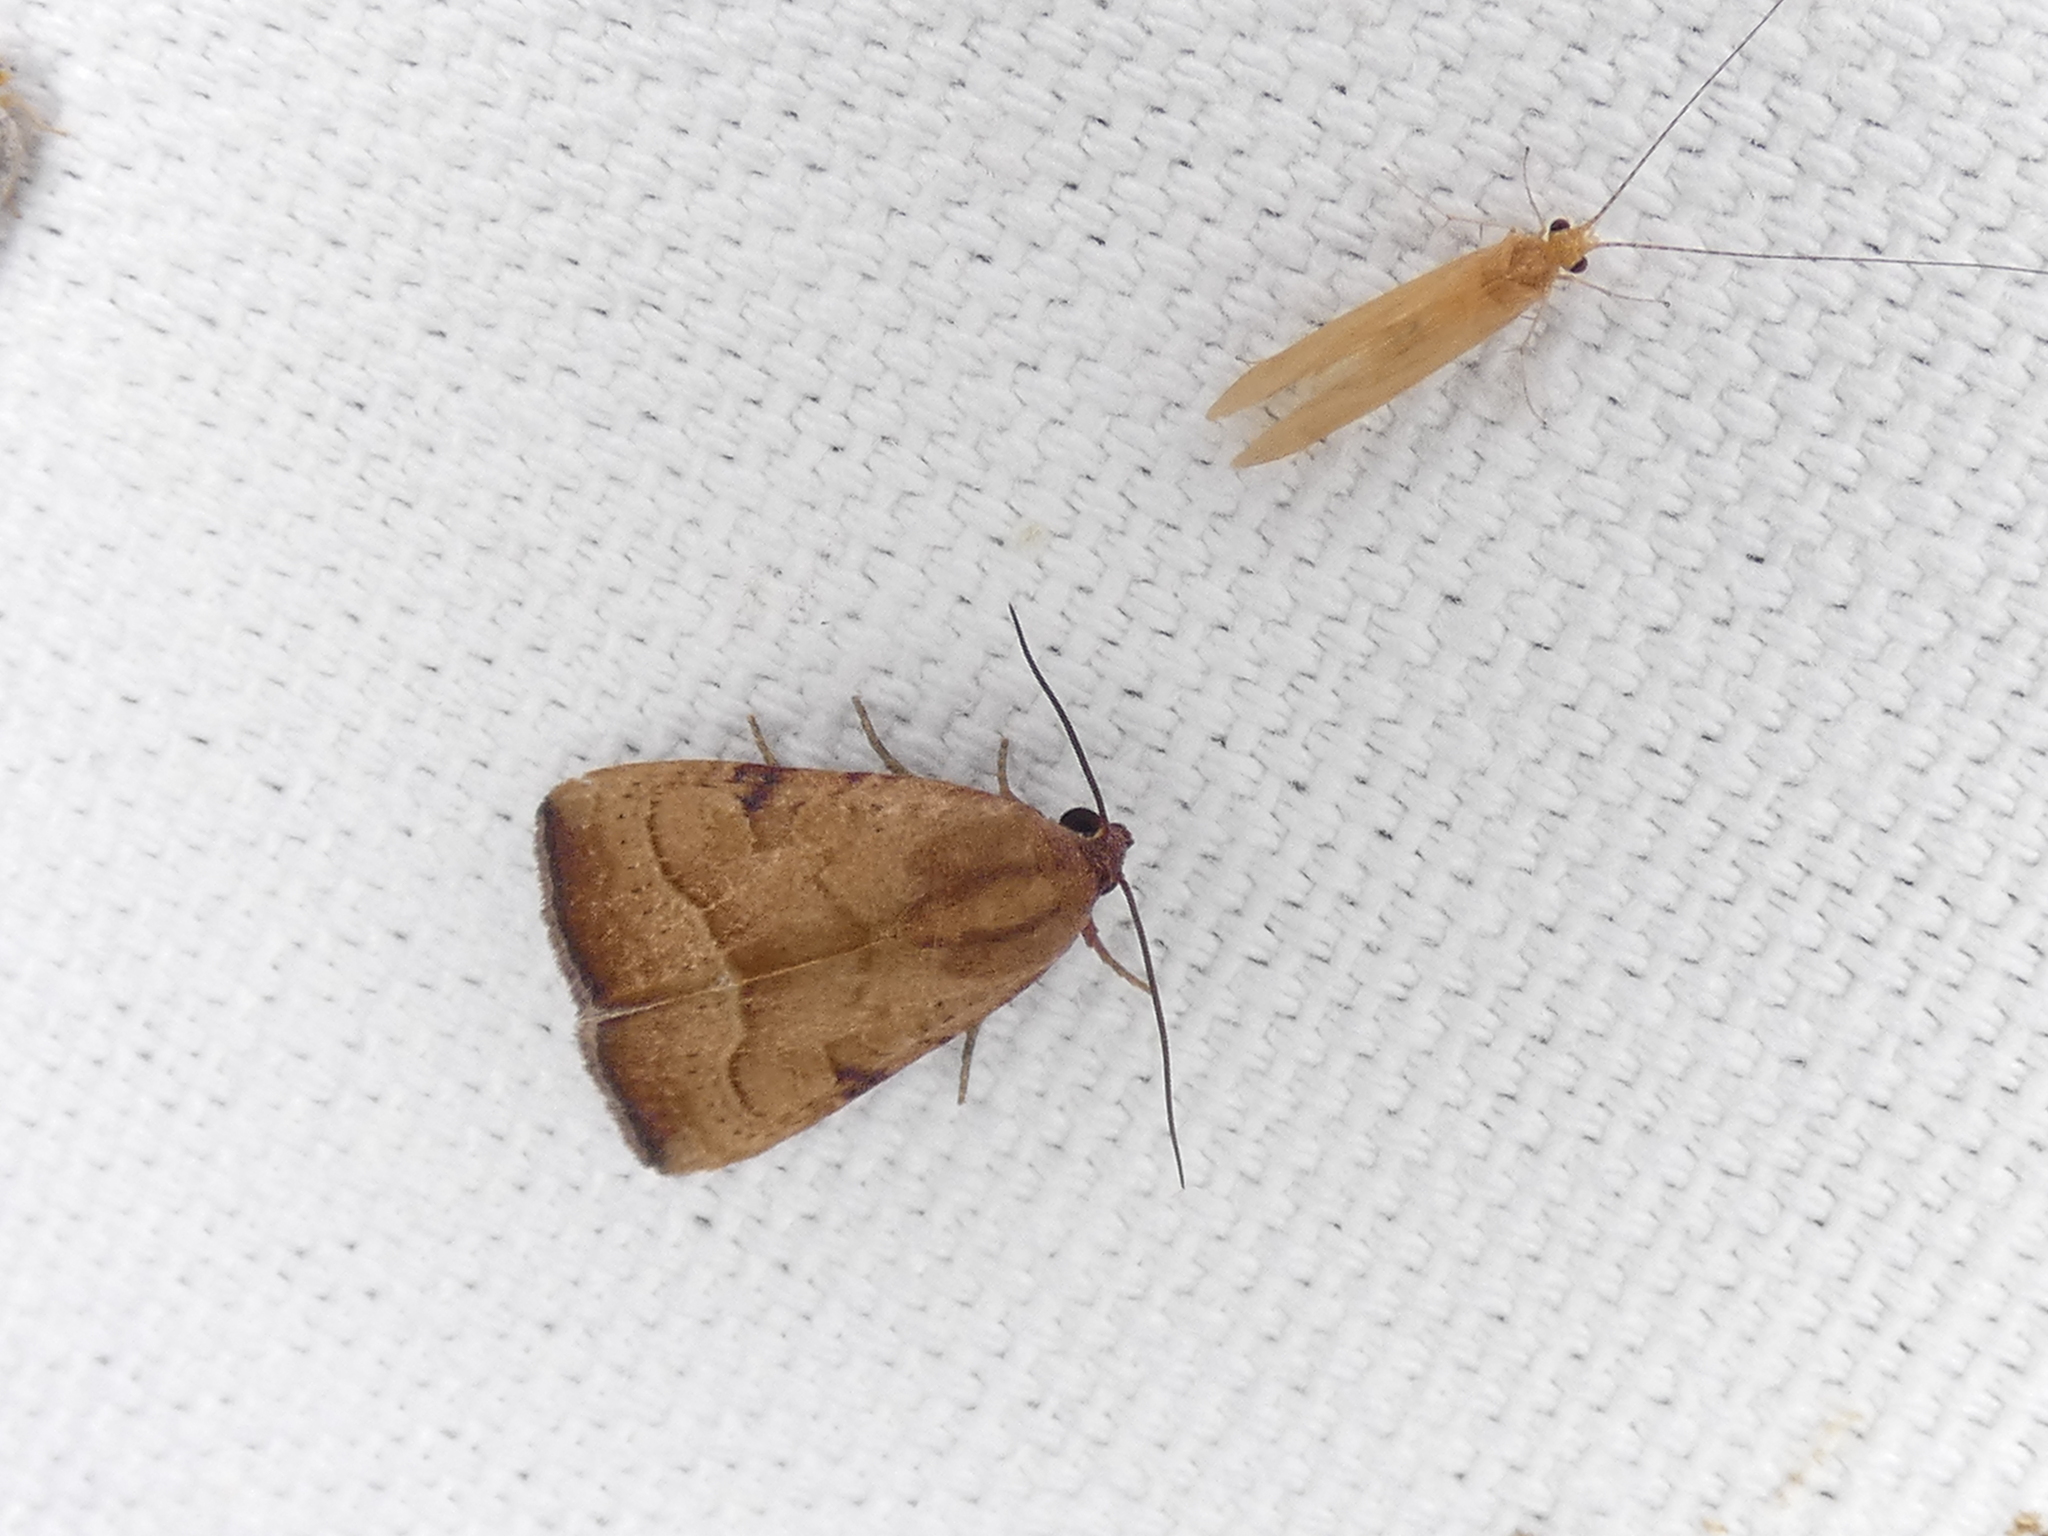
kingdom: Animalia
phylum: Arthropoda
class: Insecta
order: Lepidoptera
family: Noctuidae
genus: Galgula
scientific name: Galgula partita
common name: Wedgeling
